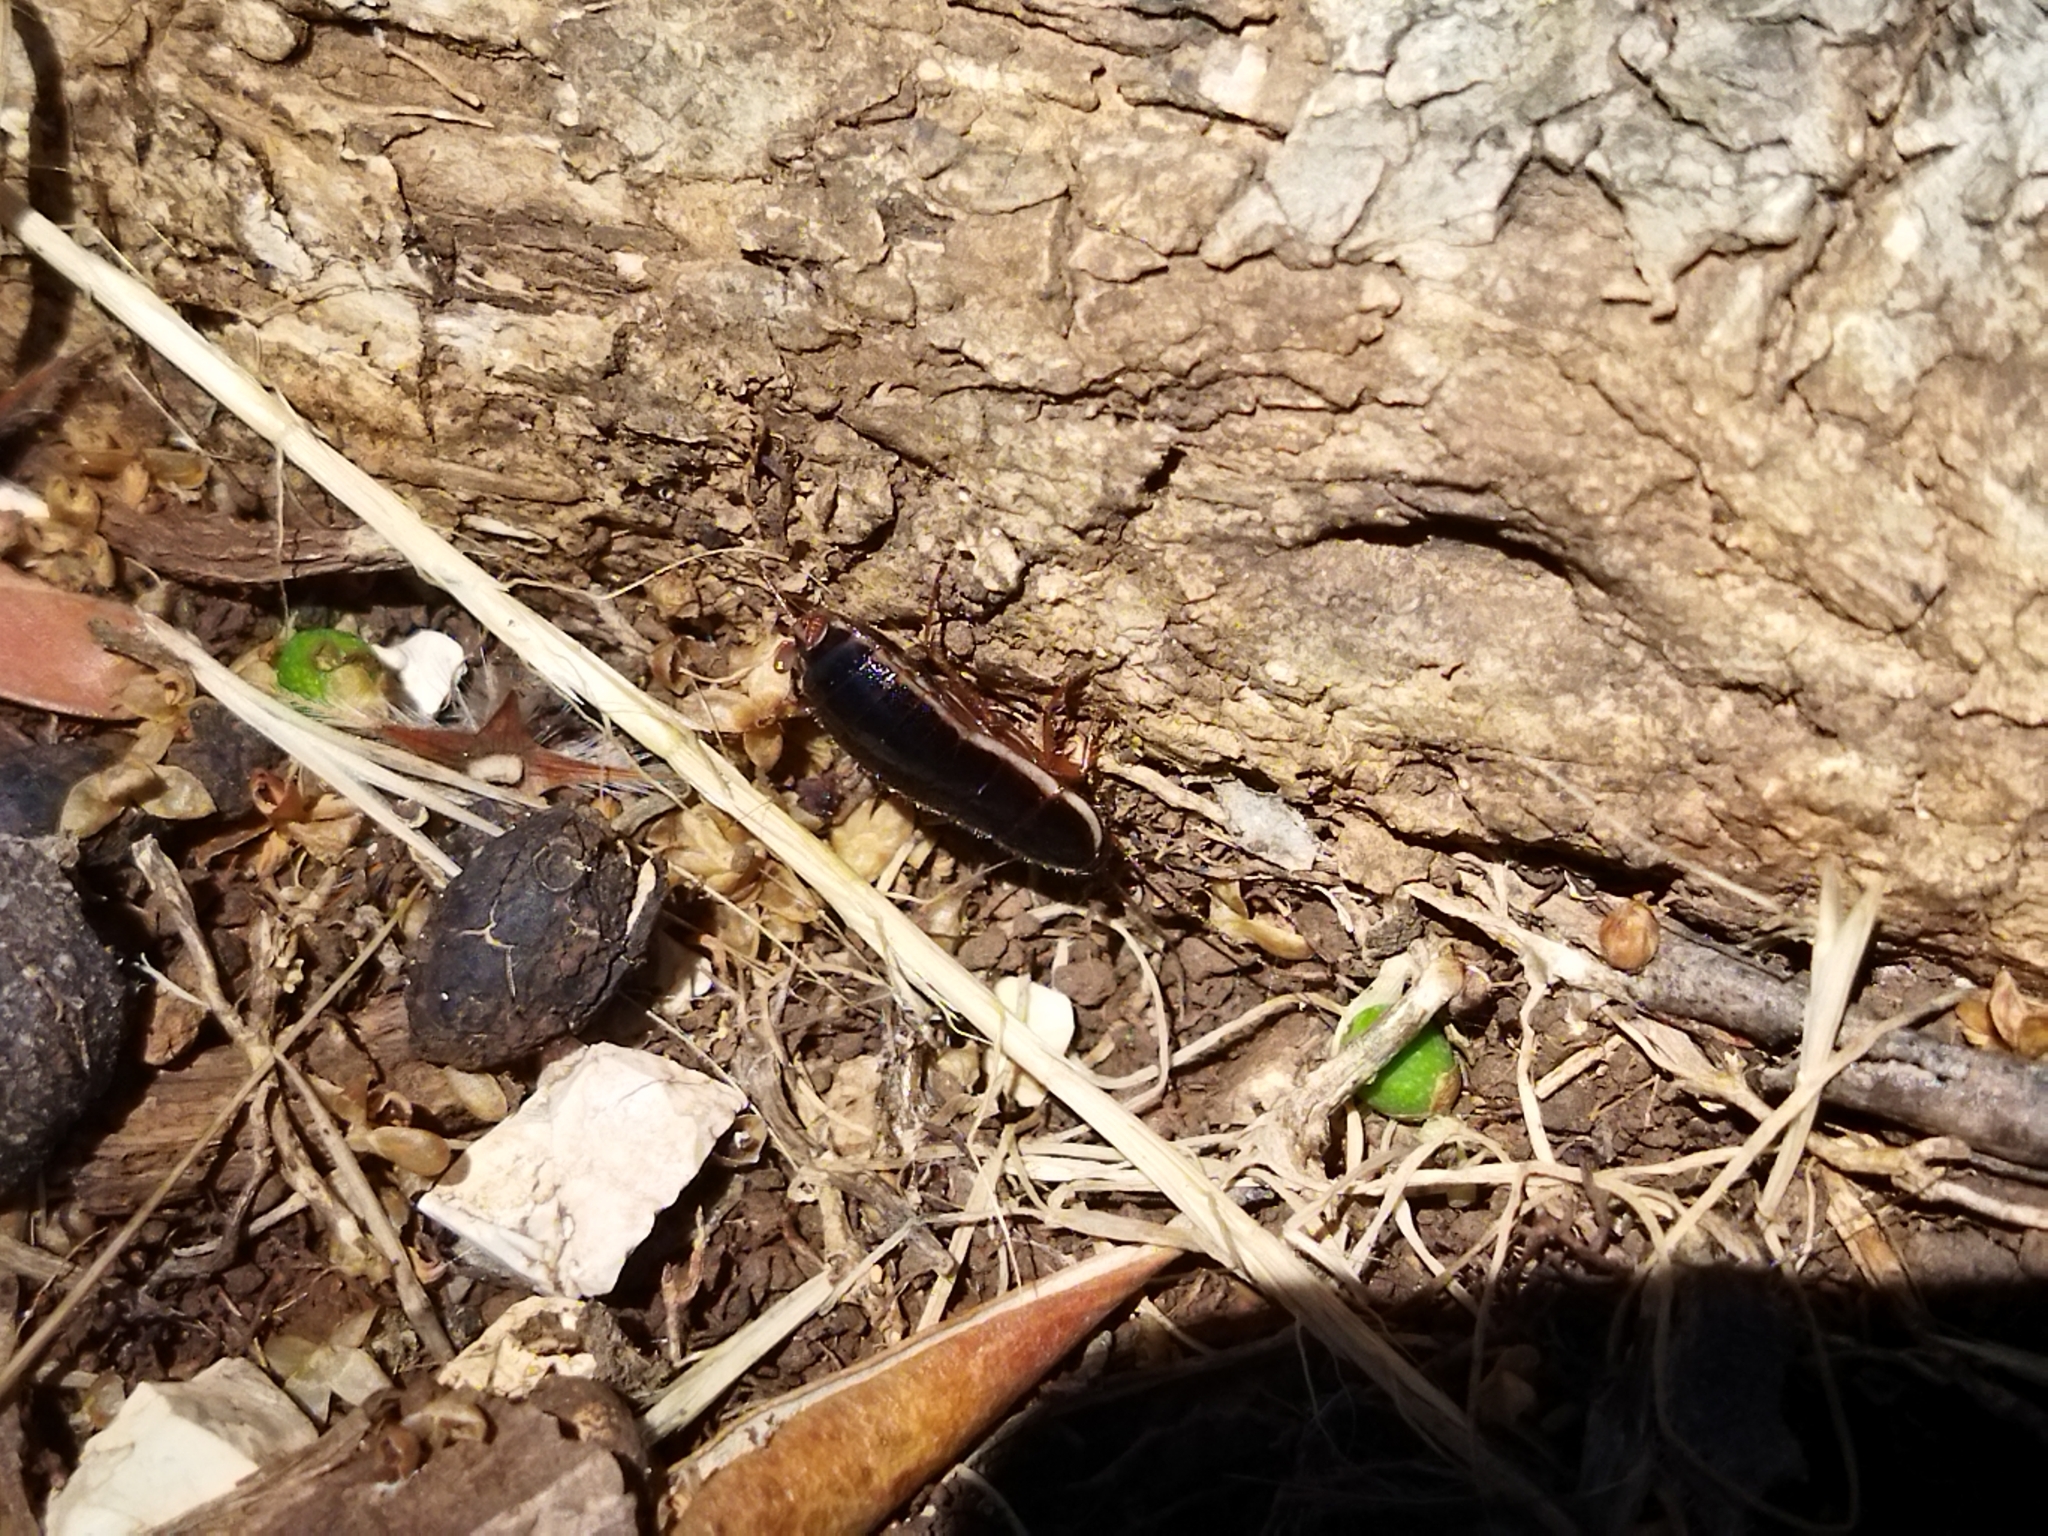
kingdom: Animalia
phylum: Arthropoda
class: Insecta
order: Blattodea
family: Ectobiidae
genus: Loboptera
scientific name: Loboptera decipiens
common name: Lobe-winged cockroach
